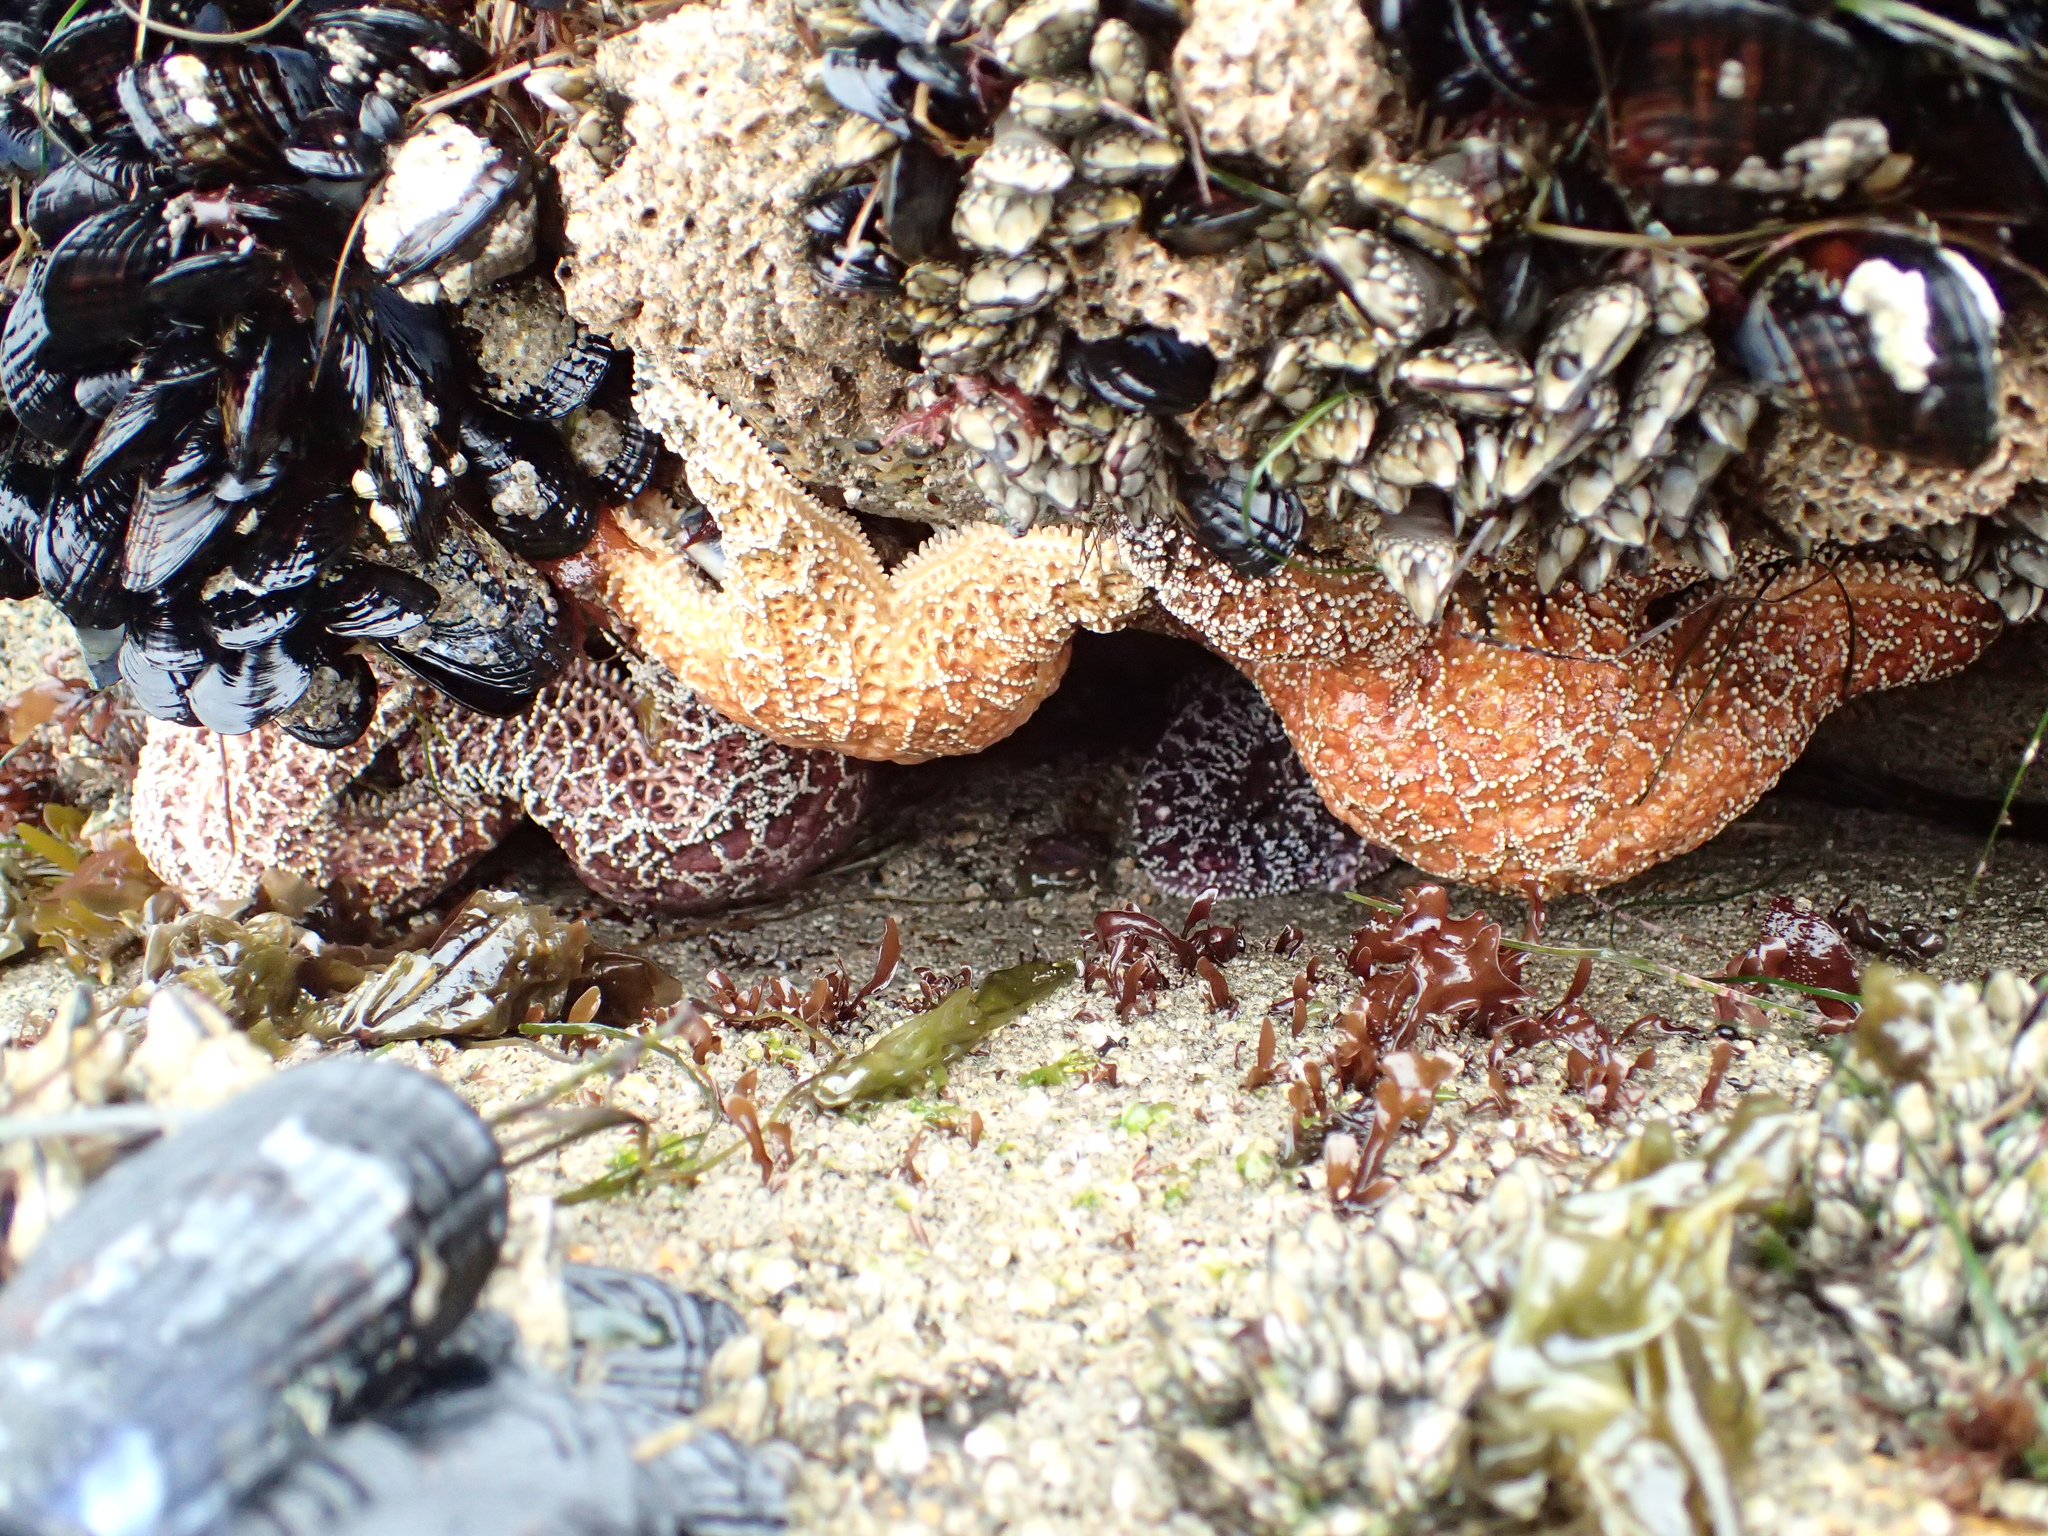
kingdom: Animalia
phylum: Echinodermata
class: Asteroidea
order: Forcipulatida
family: Asteriidae
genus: Pisaster
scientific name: Pisaster ochraceus
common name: Ochre stars
